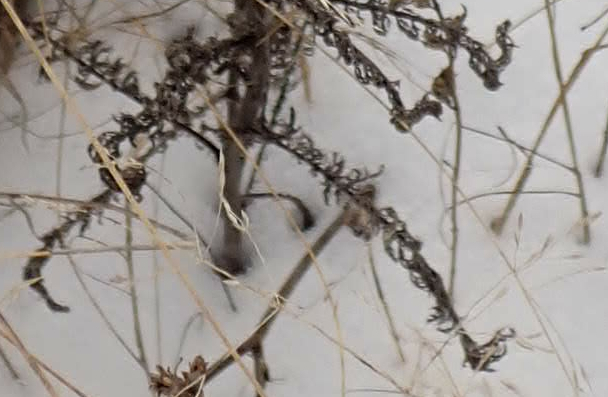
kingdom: Plantae
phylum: Tracheophyta
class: Magnoliopsida
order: Asterales
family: Asteraceae
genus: Achillea
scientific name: Achillea millefolium
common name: Yarrow
